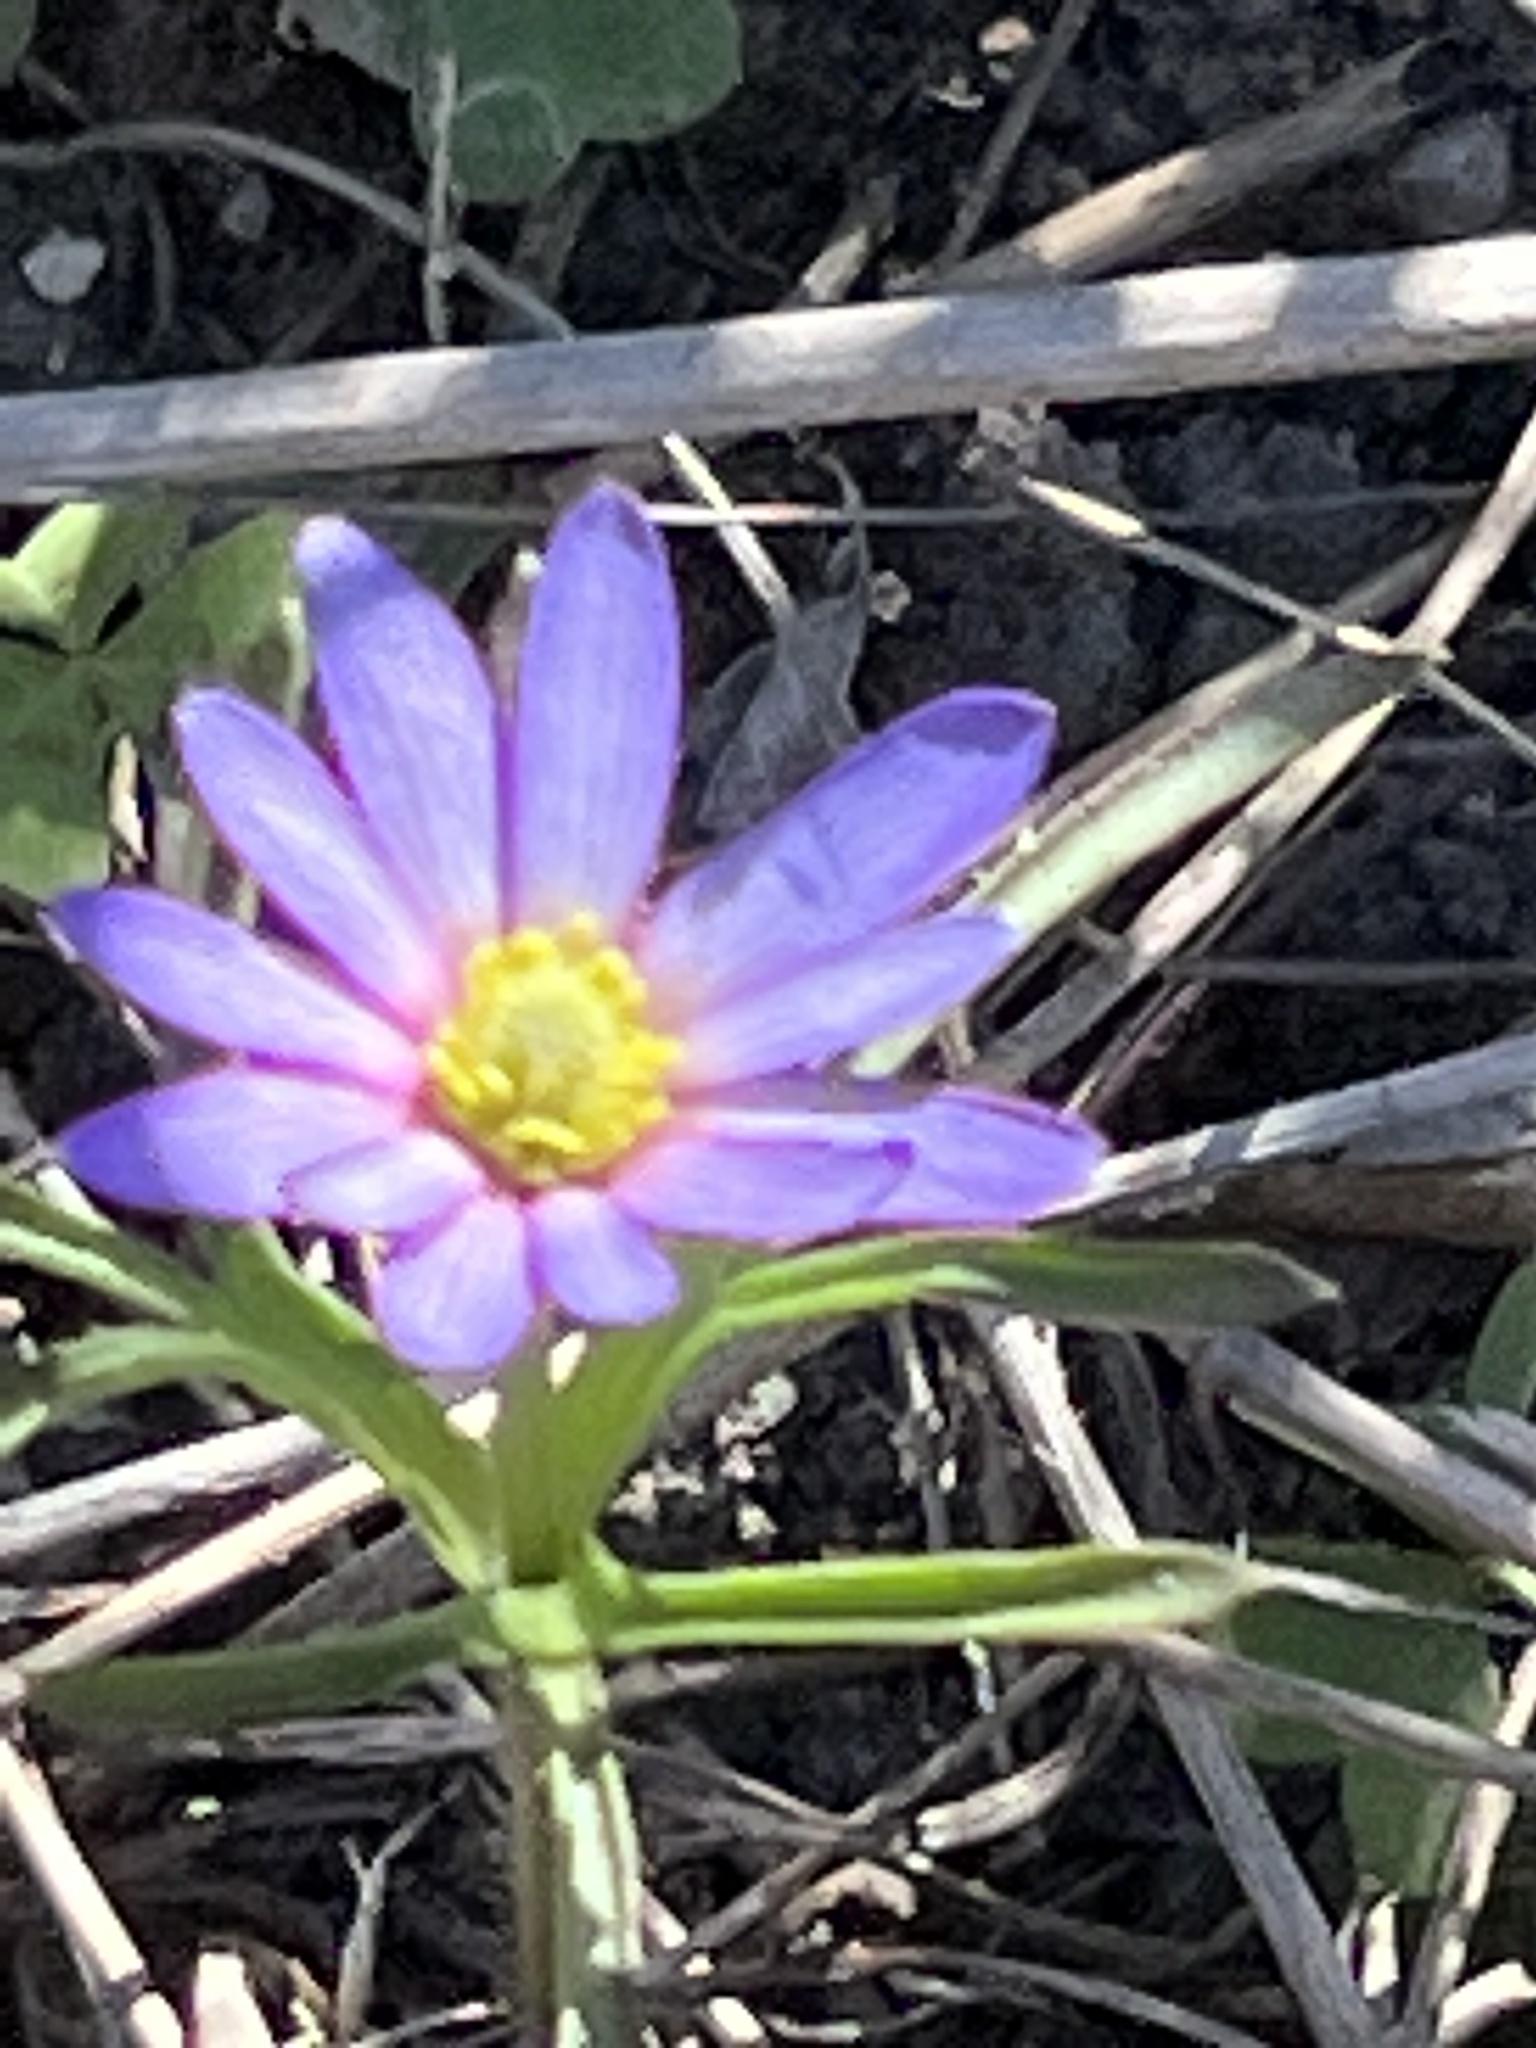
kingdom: Plantae
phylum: Tracheophyta
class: Magnoliopsida
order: Ranunculales
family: Ranunculaceae
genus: Anemone
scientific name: Anemone berlandieri
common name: Ten-petal anemone
